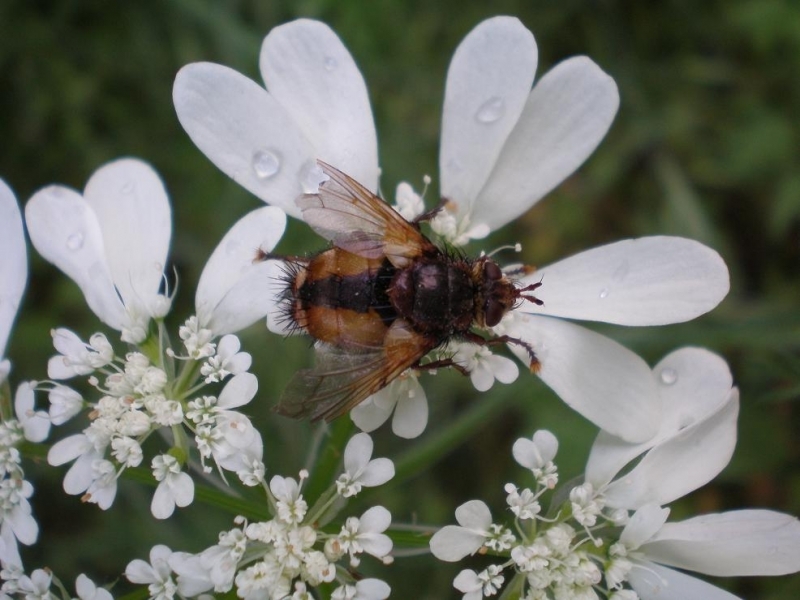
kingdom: Animalia
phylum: Arthropoda
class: Insecta
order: Diptera
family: Tachinidae
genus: Tachina
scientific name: Tachina fera
